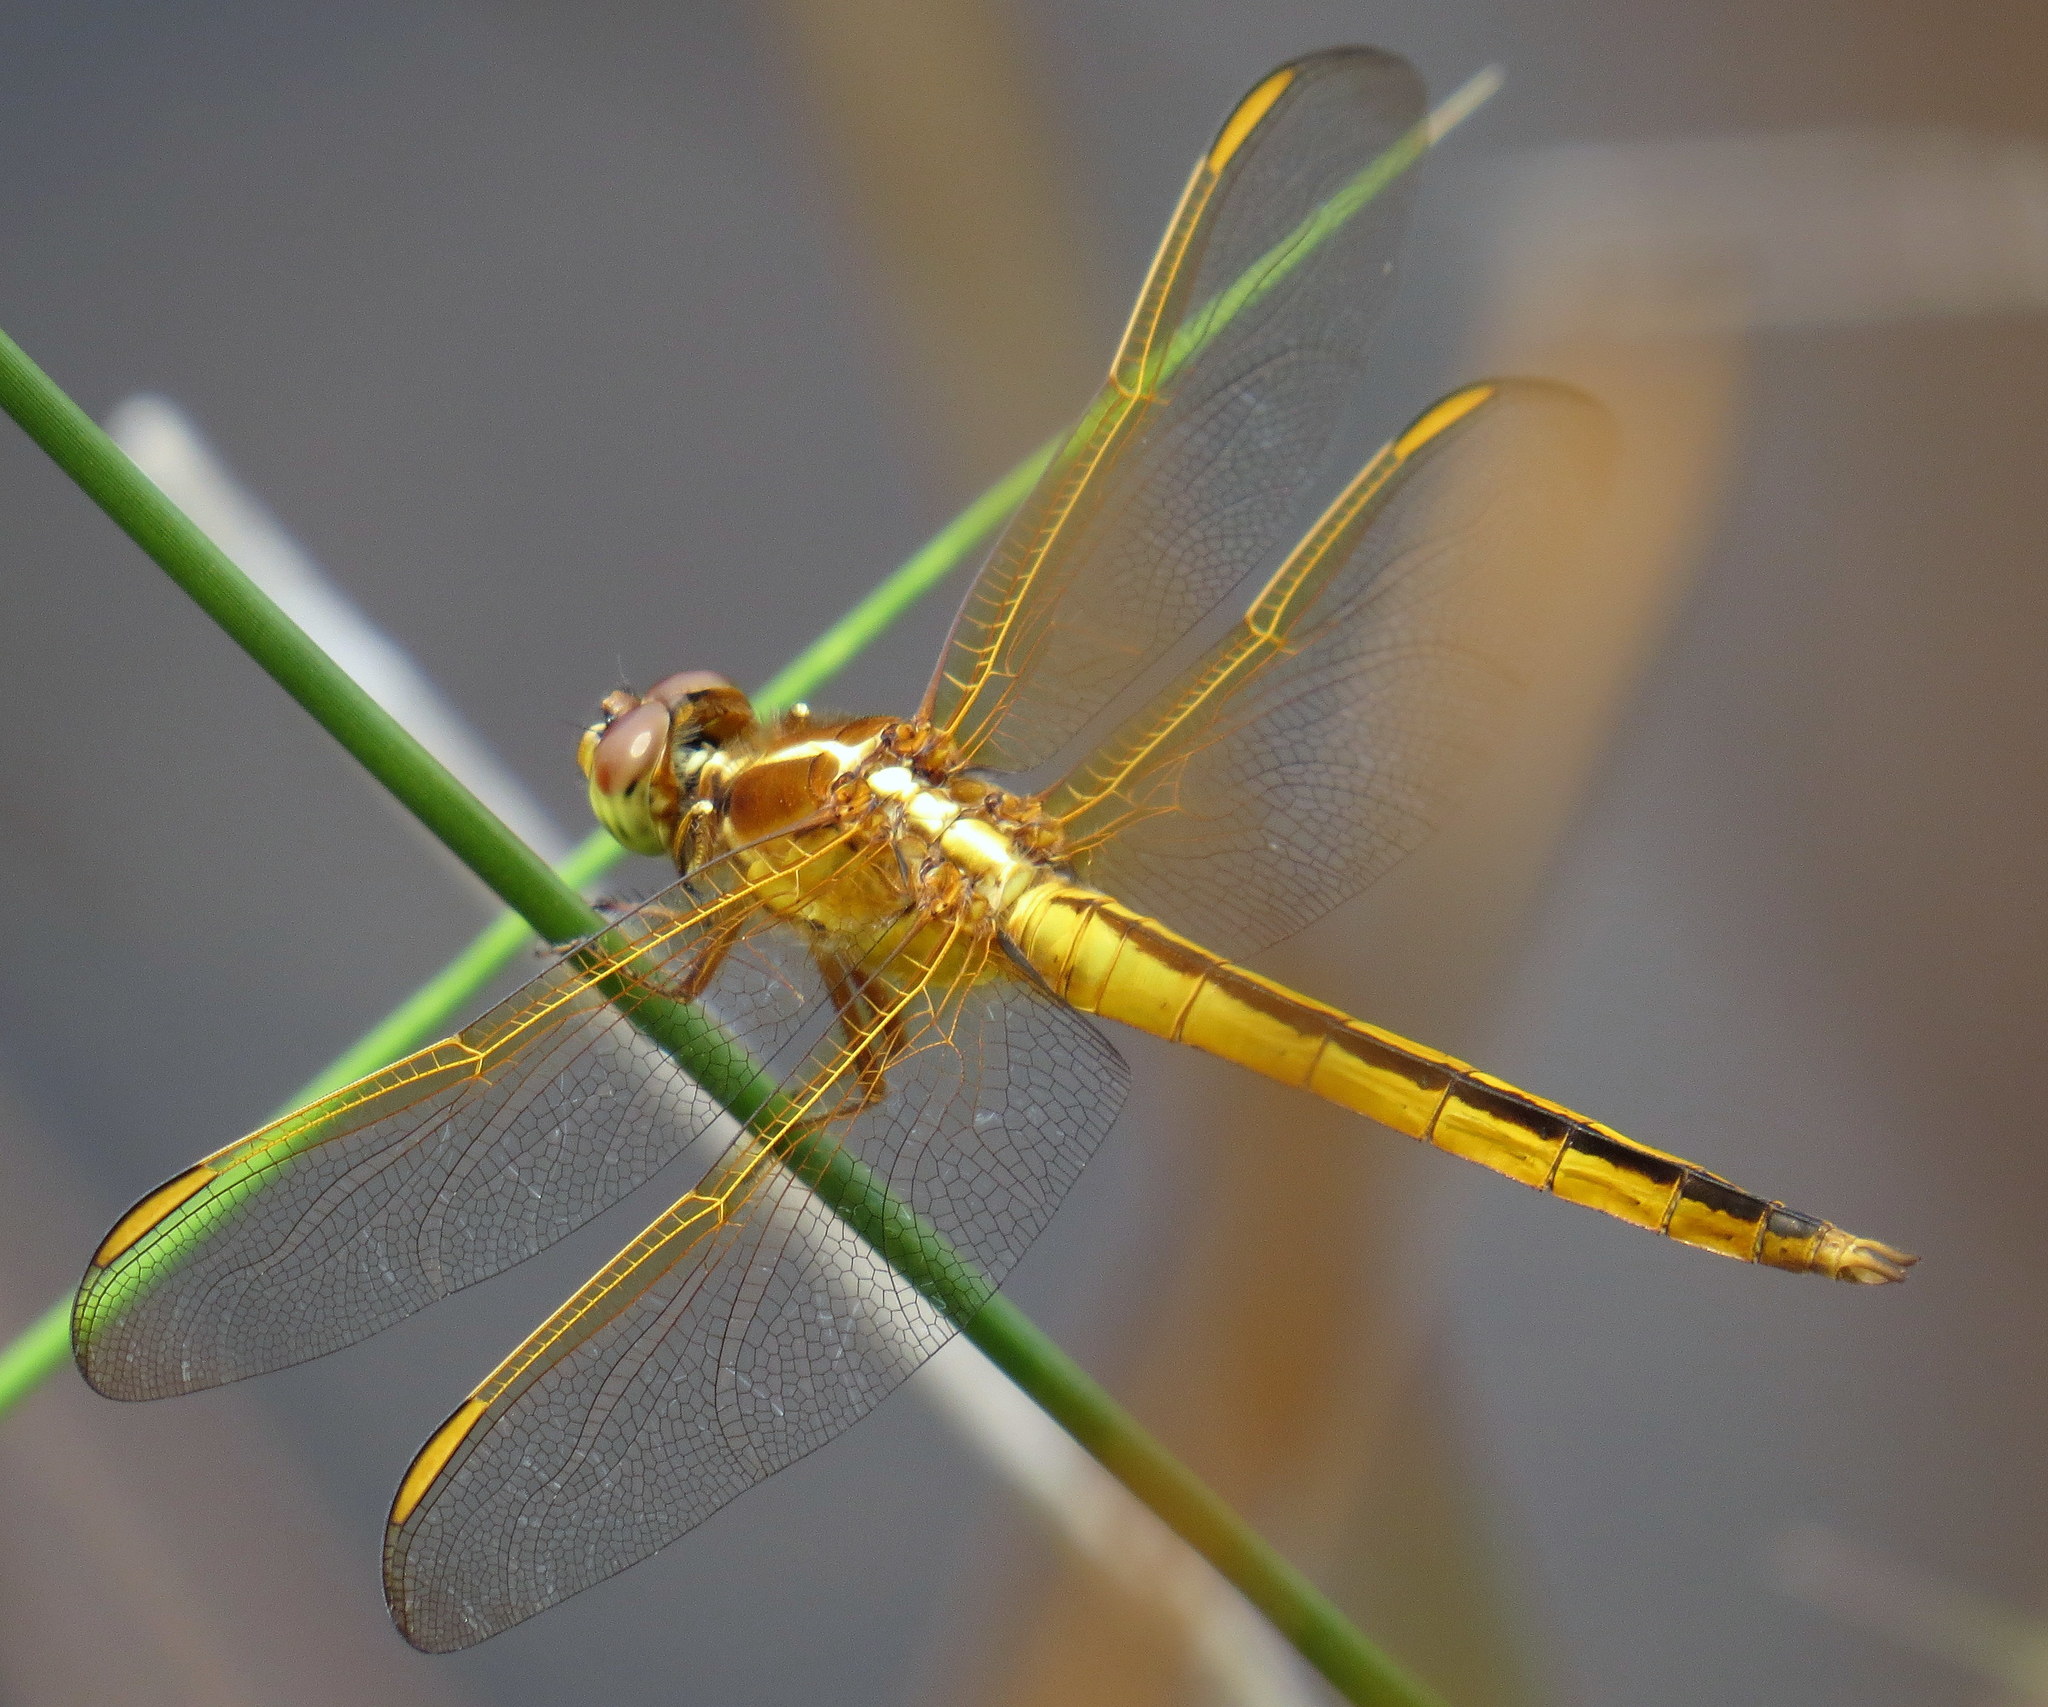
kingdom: Animalia
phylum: Arthropoda
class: Insecta
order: Odonata
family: Libellulidae
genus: Libellula
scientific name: Libellula needhami
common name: Needham's skimmer
